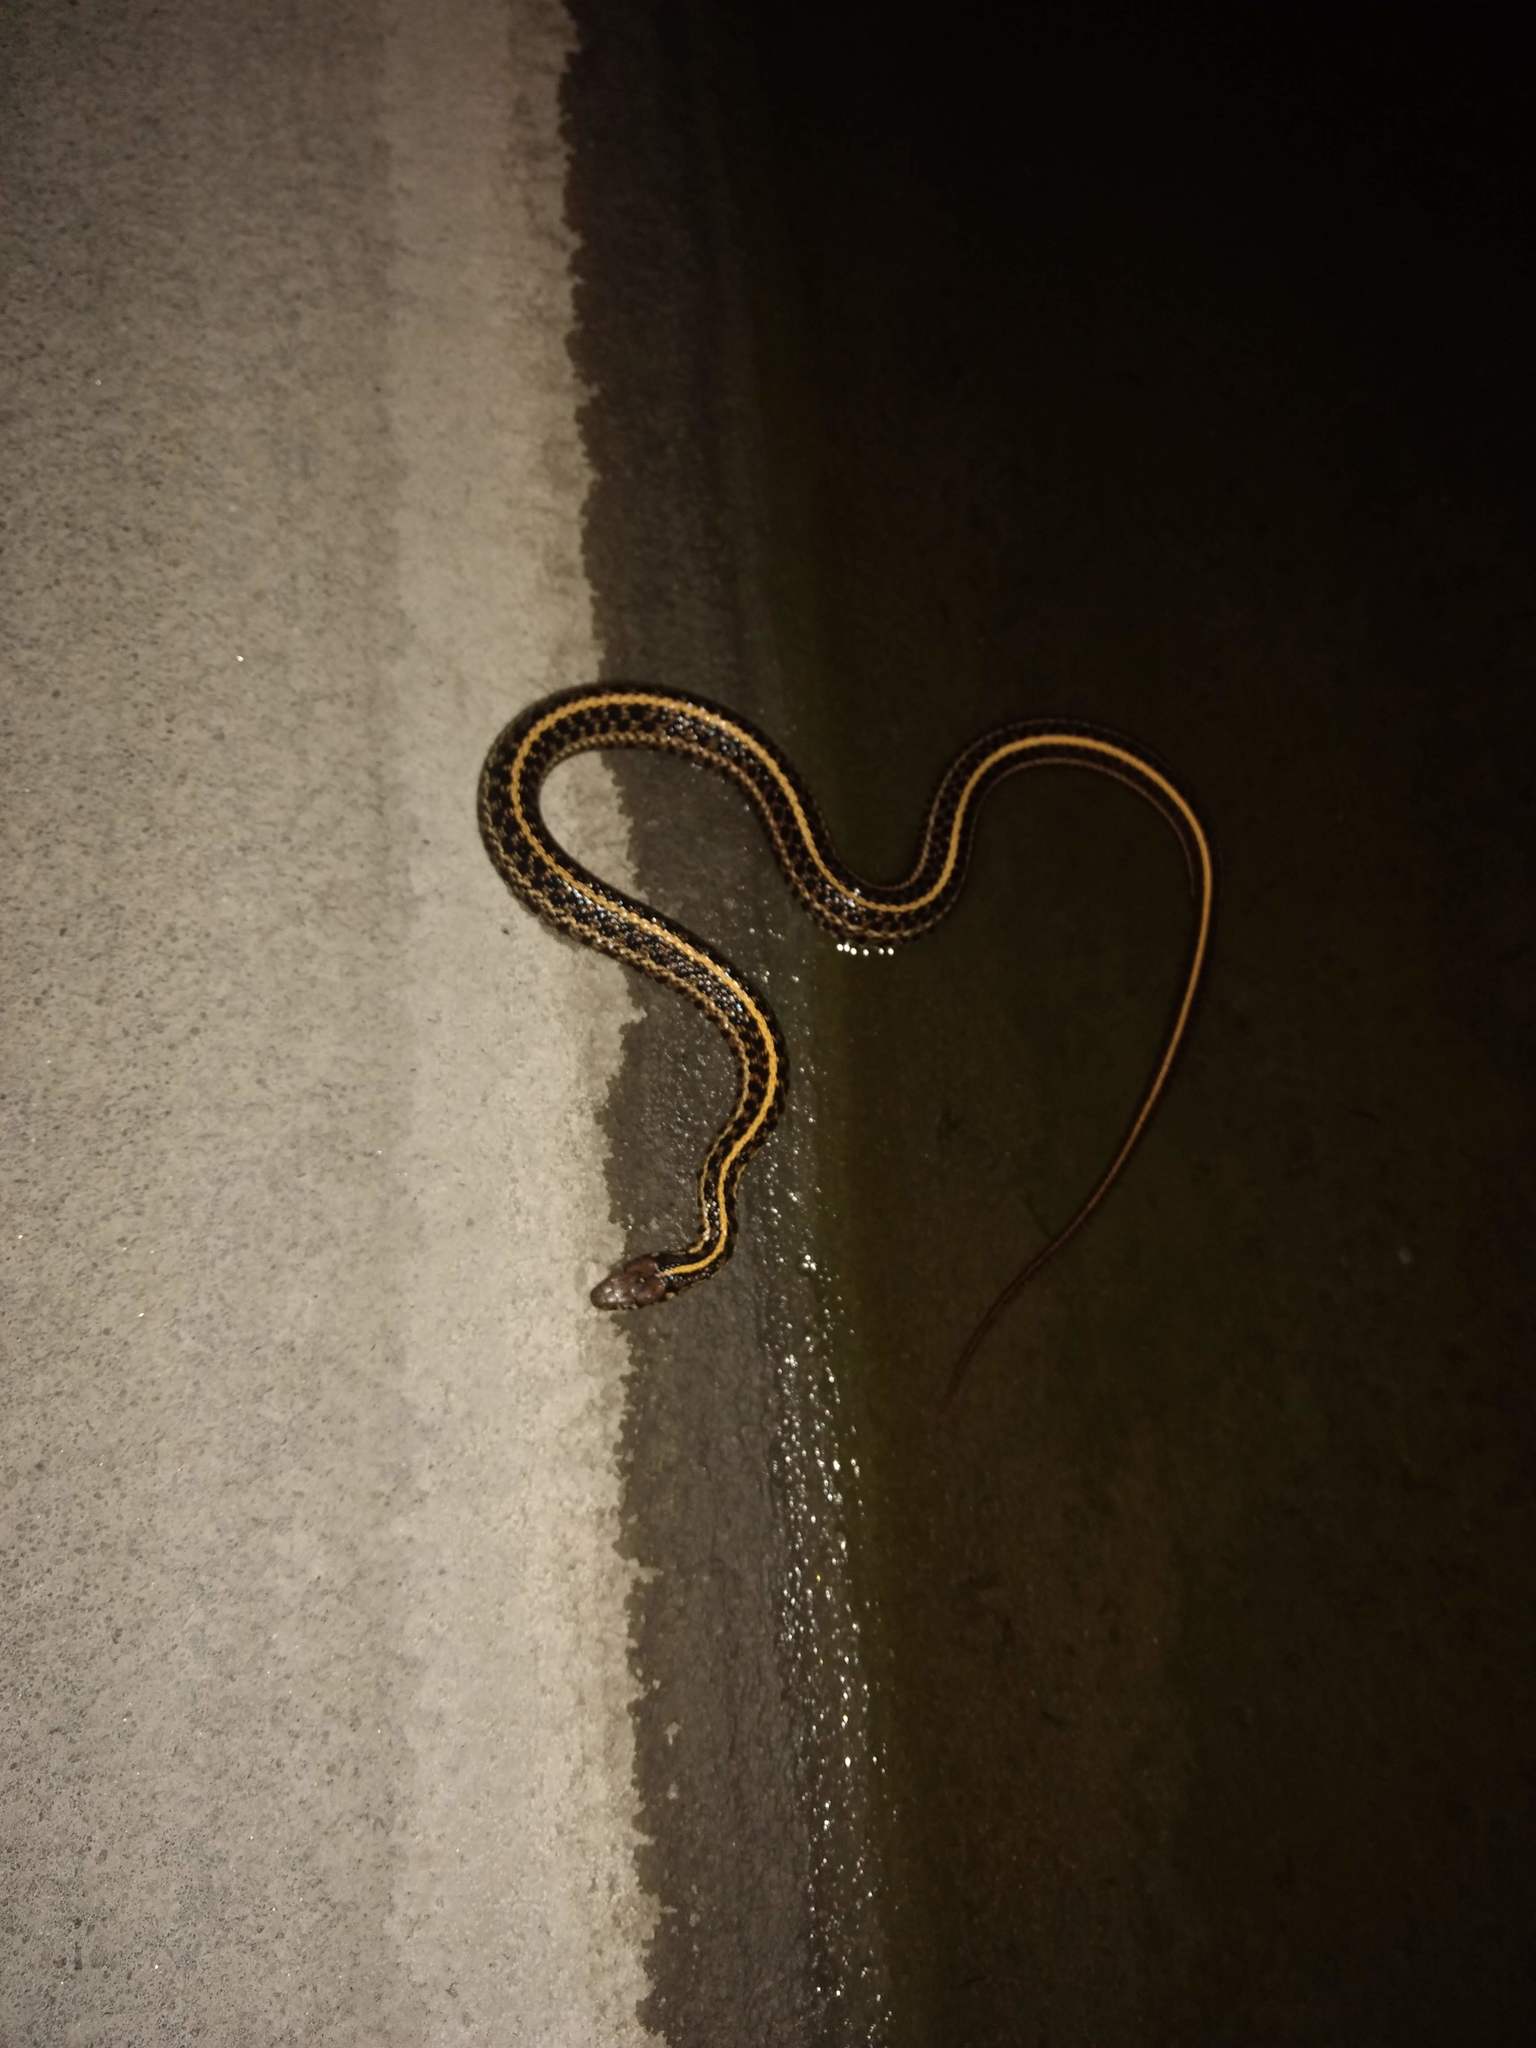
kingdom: Animalia
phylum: Chordata
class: Squamata
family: Colubridae
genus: Thamnophis
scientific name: Thamnophis radix
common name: Plains garter snake
